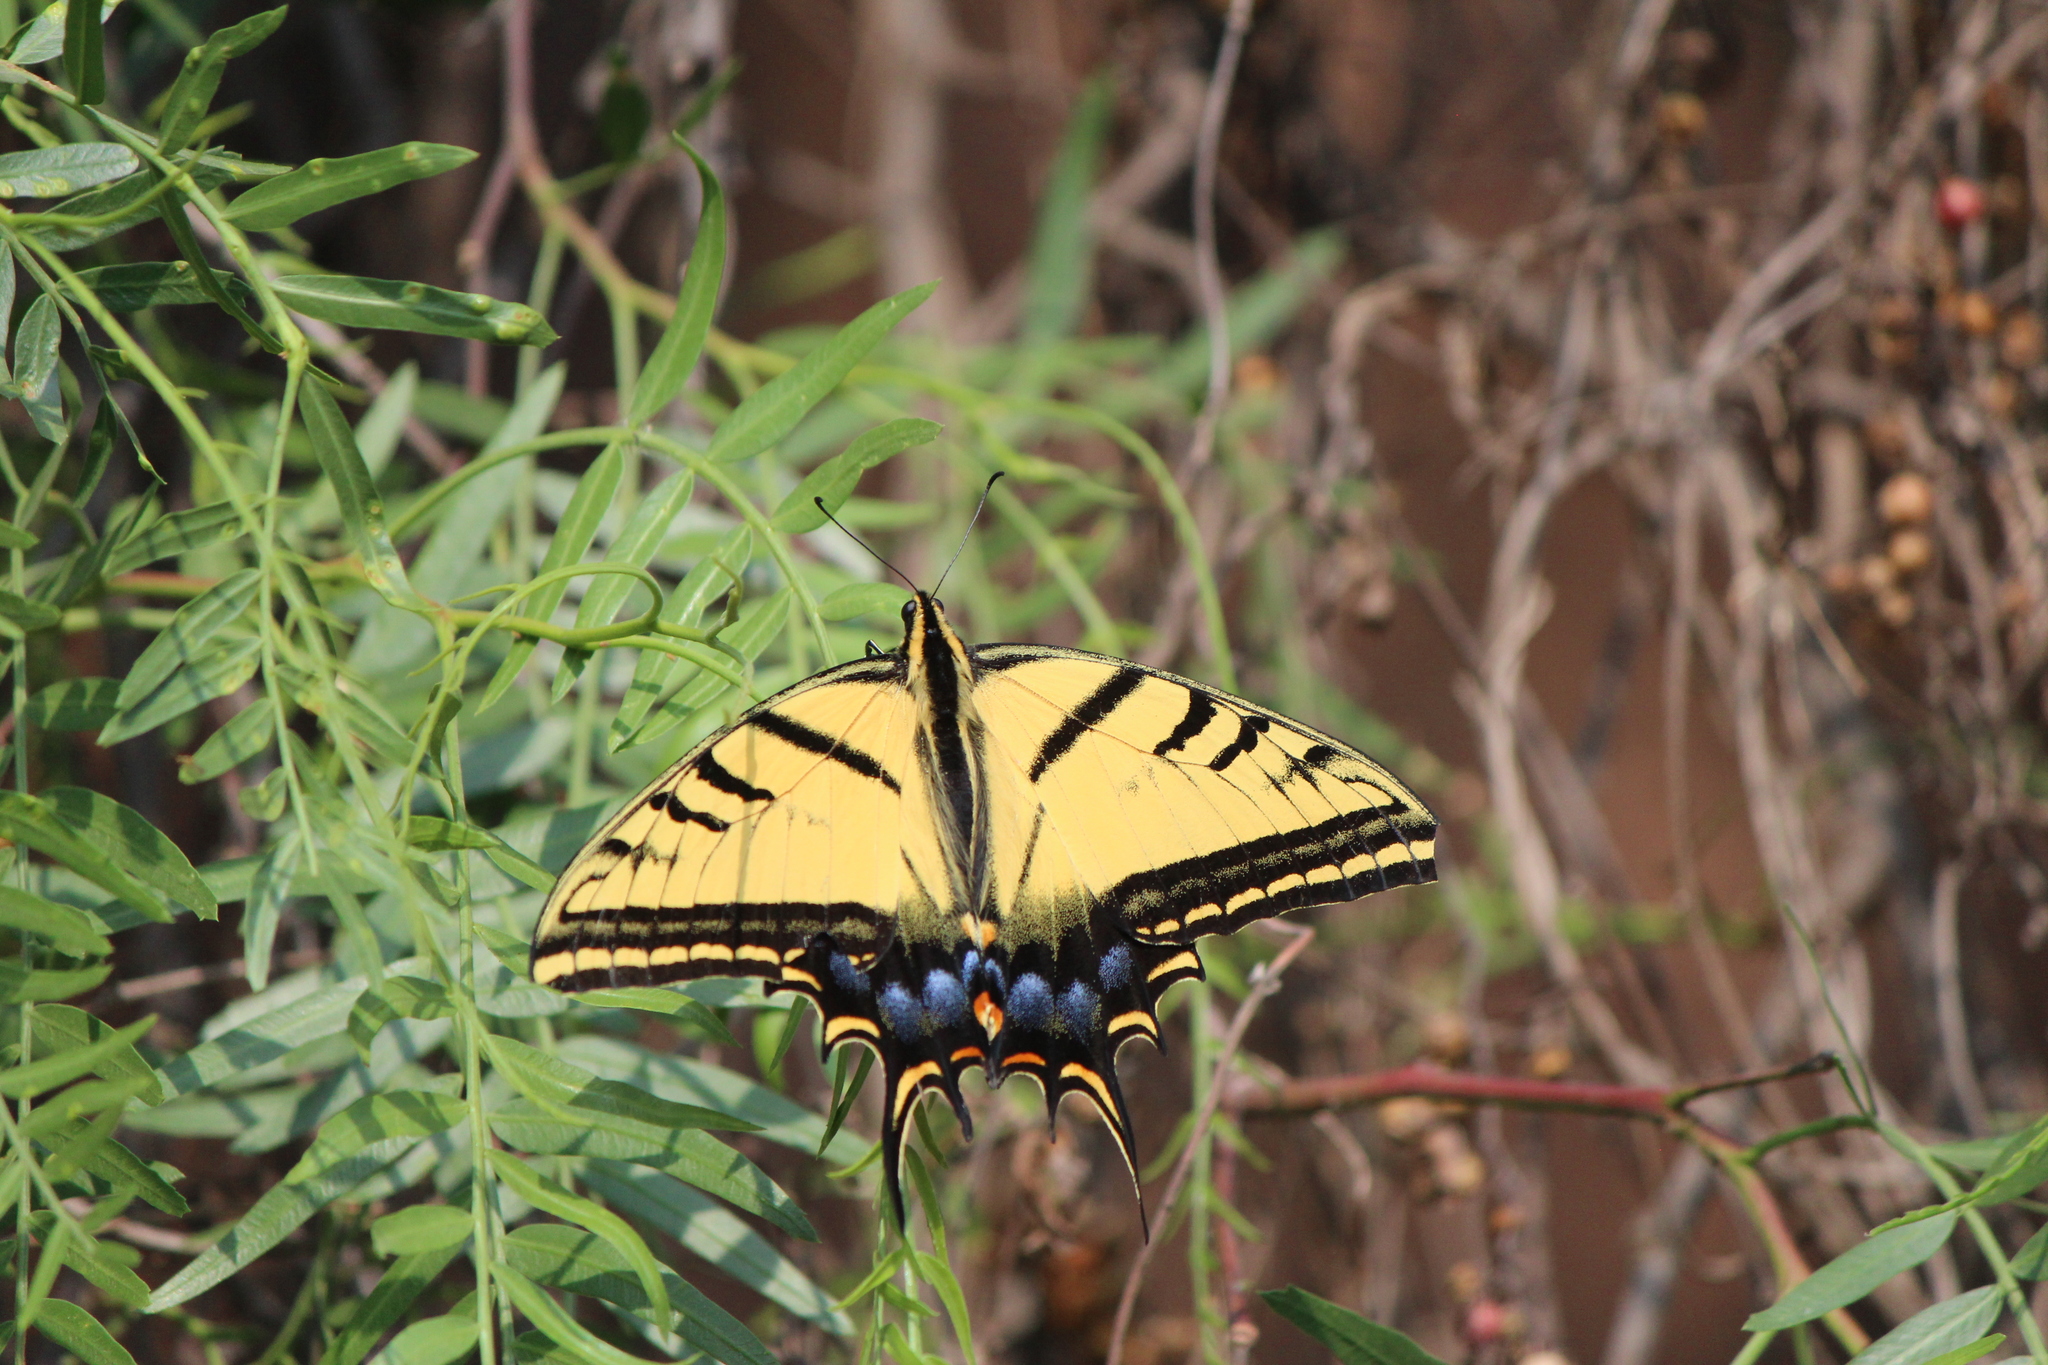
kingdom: Animalia
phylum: Arthropoda
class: Insecta
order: Lepidoptera
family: Papilionidae
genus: Papilio
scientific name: Papilio multicaudata
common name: Two-tailed tiger swallowtail
